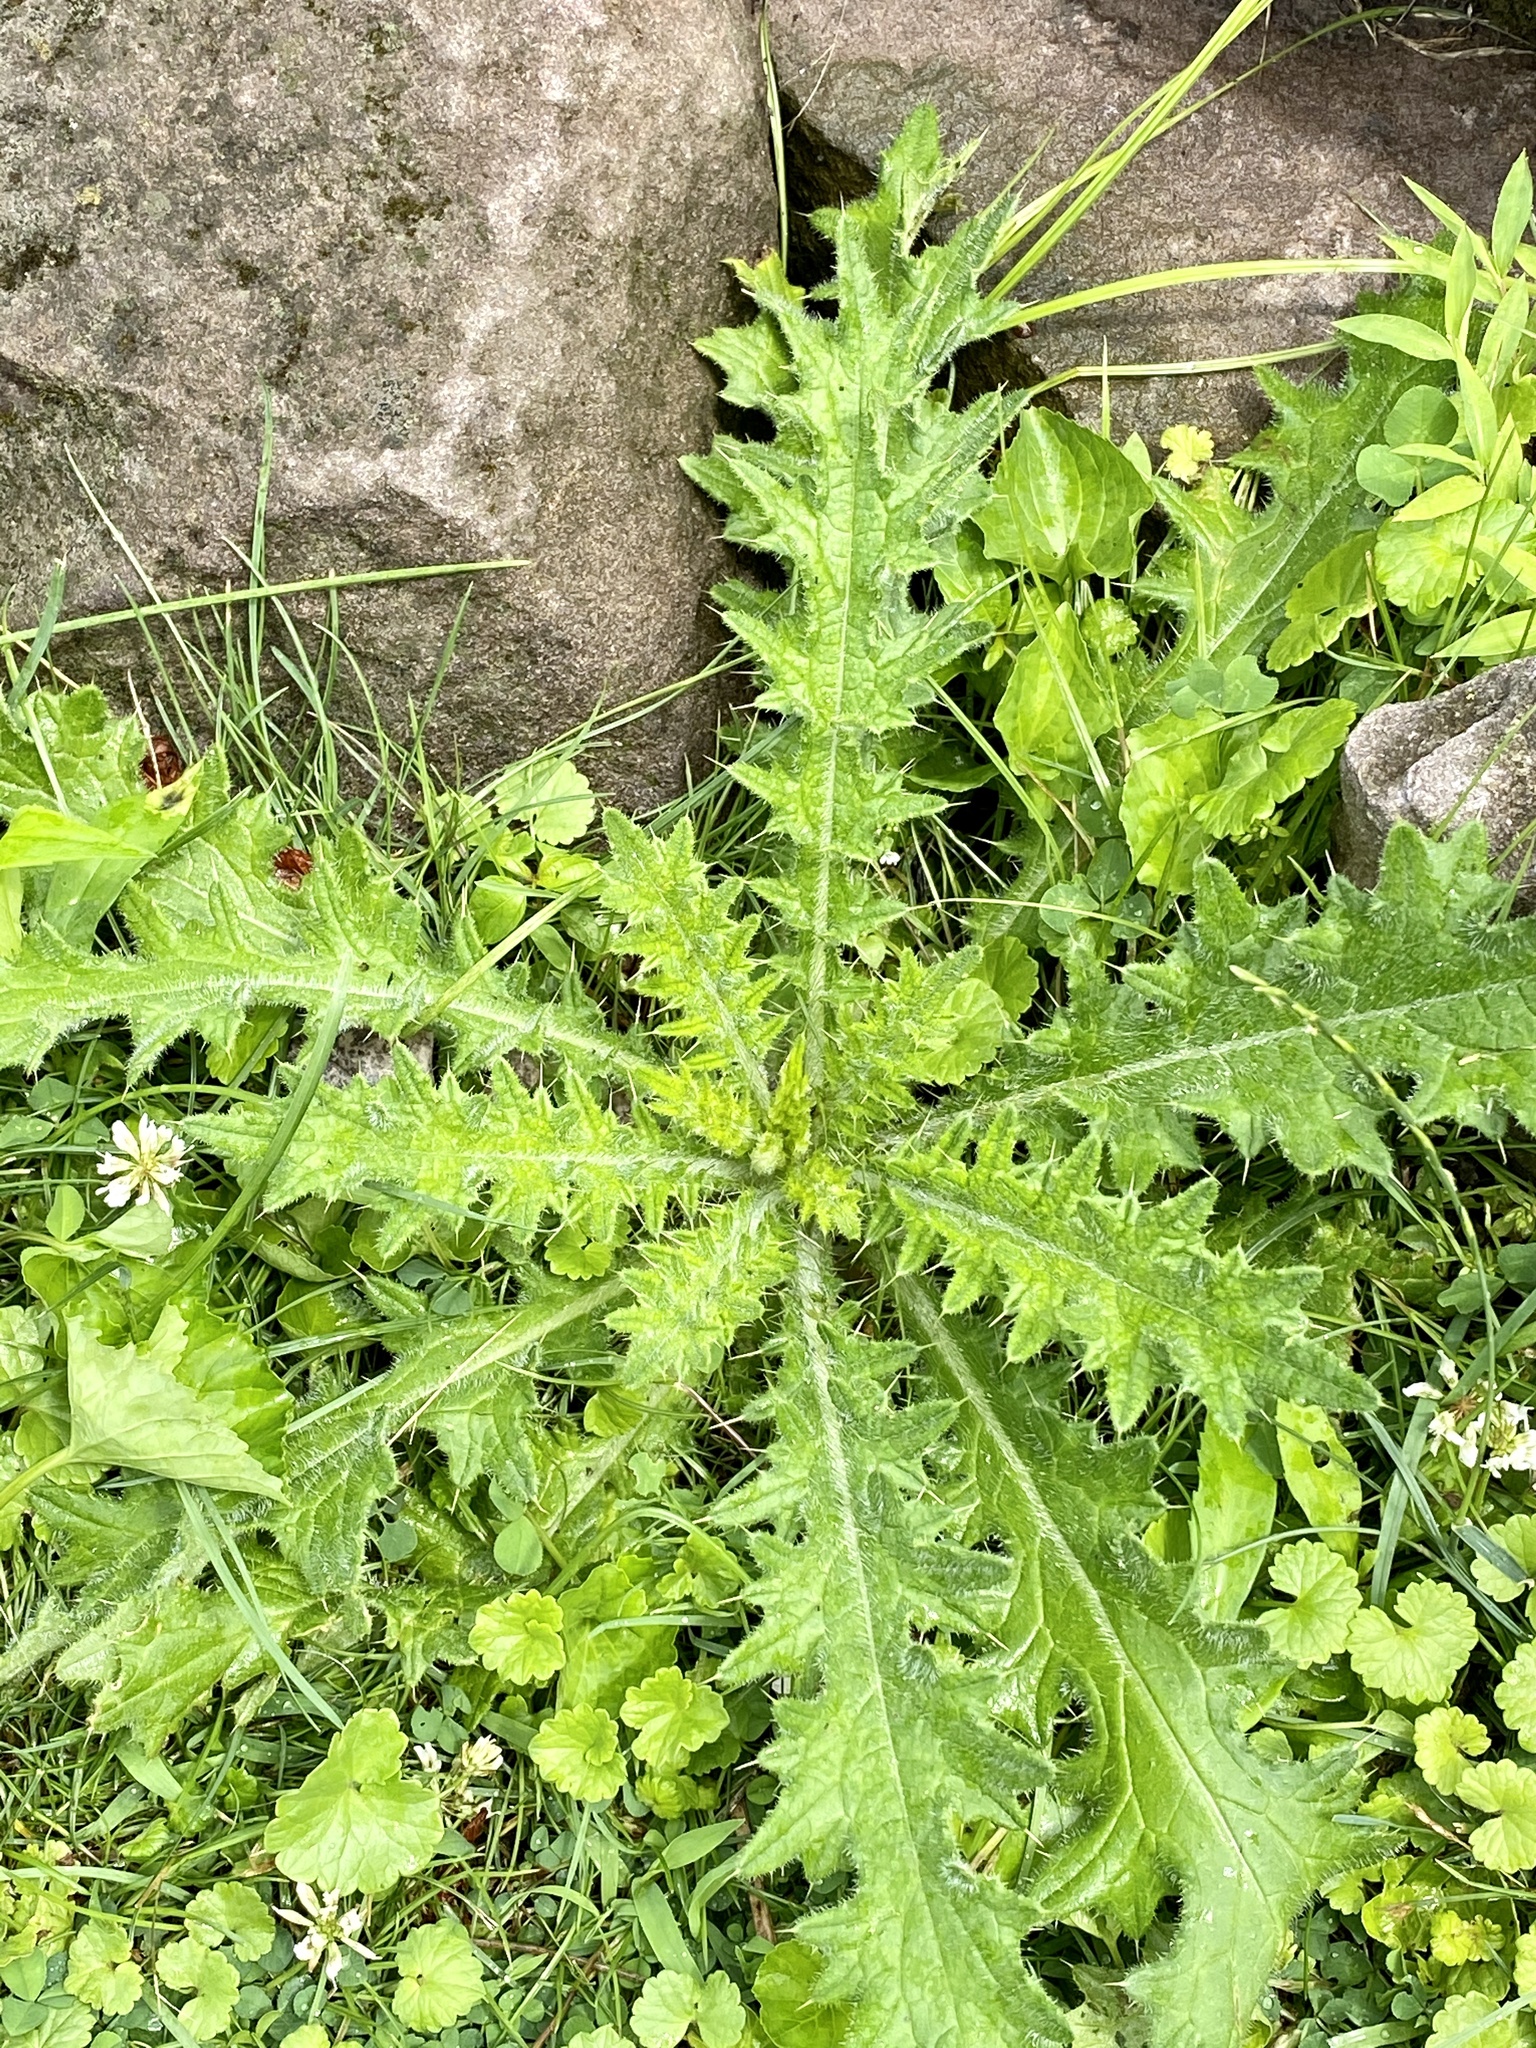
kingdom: Plantae
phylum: Tracheophyta
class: Magnoliopsida
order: Asterales
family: Asteraceae
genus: Cirsium
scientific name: Cirsium vulgare
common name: Bull thistle
